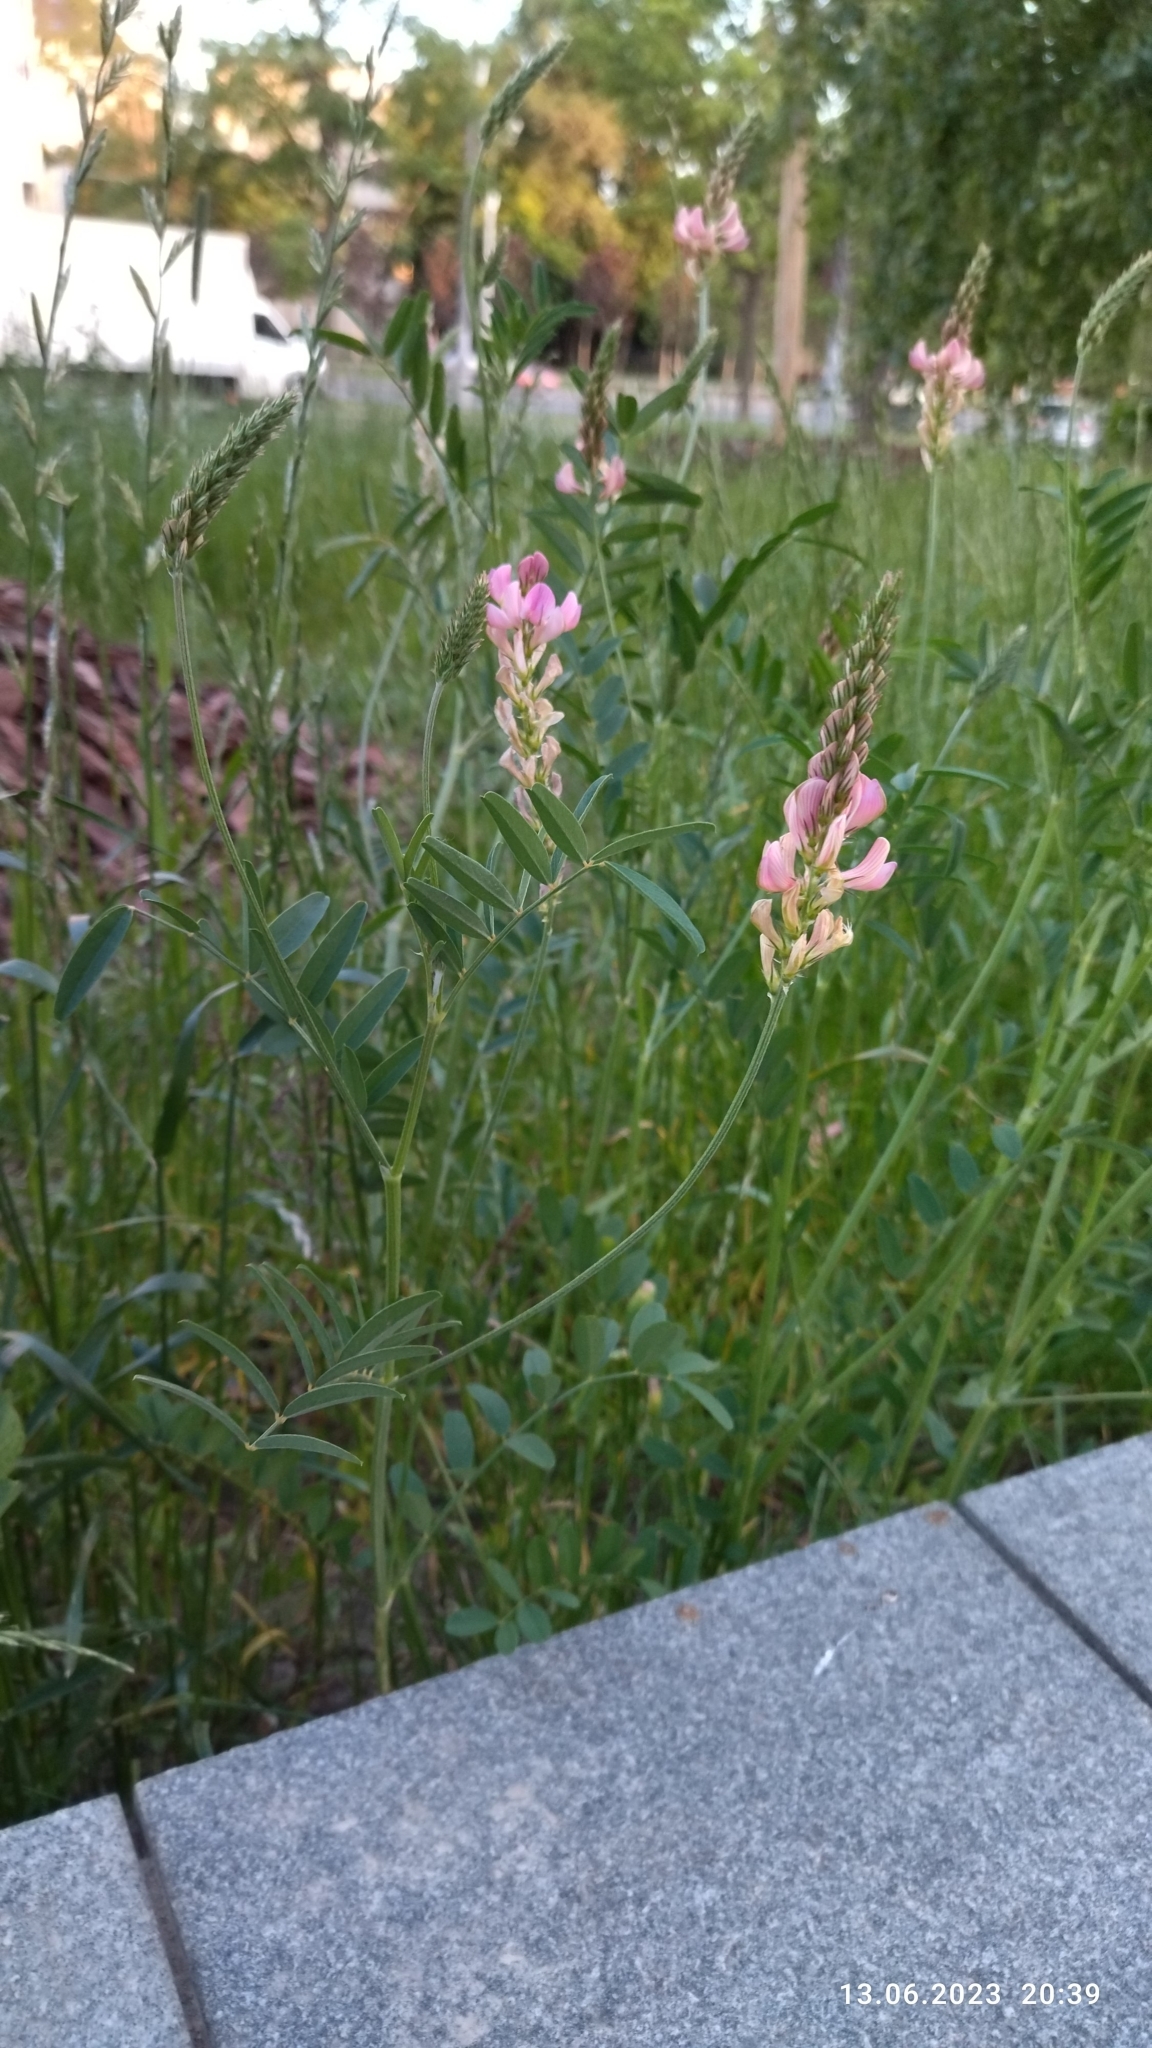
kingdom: Plantae
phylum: Tracheophyta
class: Magnoliopsida
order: Fabales
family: Fabaceae
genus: Onobrychis
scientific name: Onobrychis viciifolia
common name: Sainfoin
